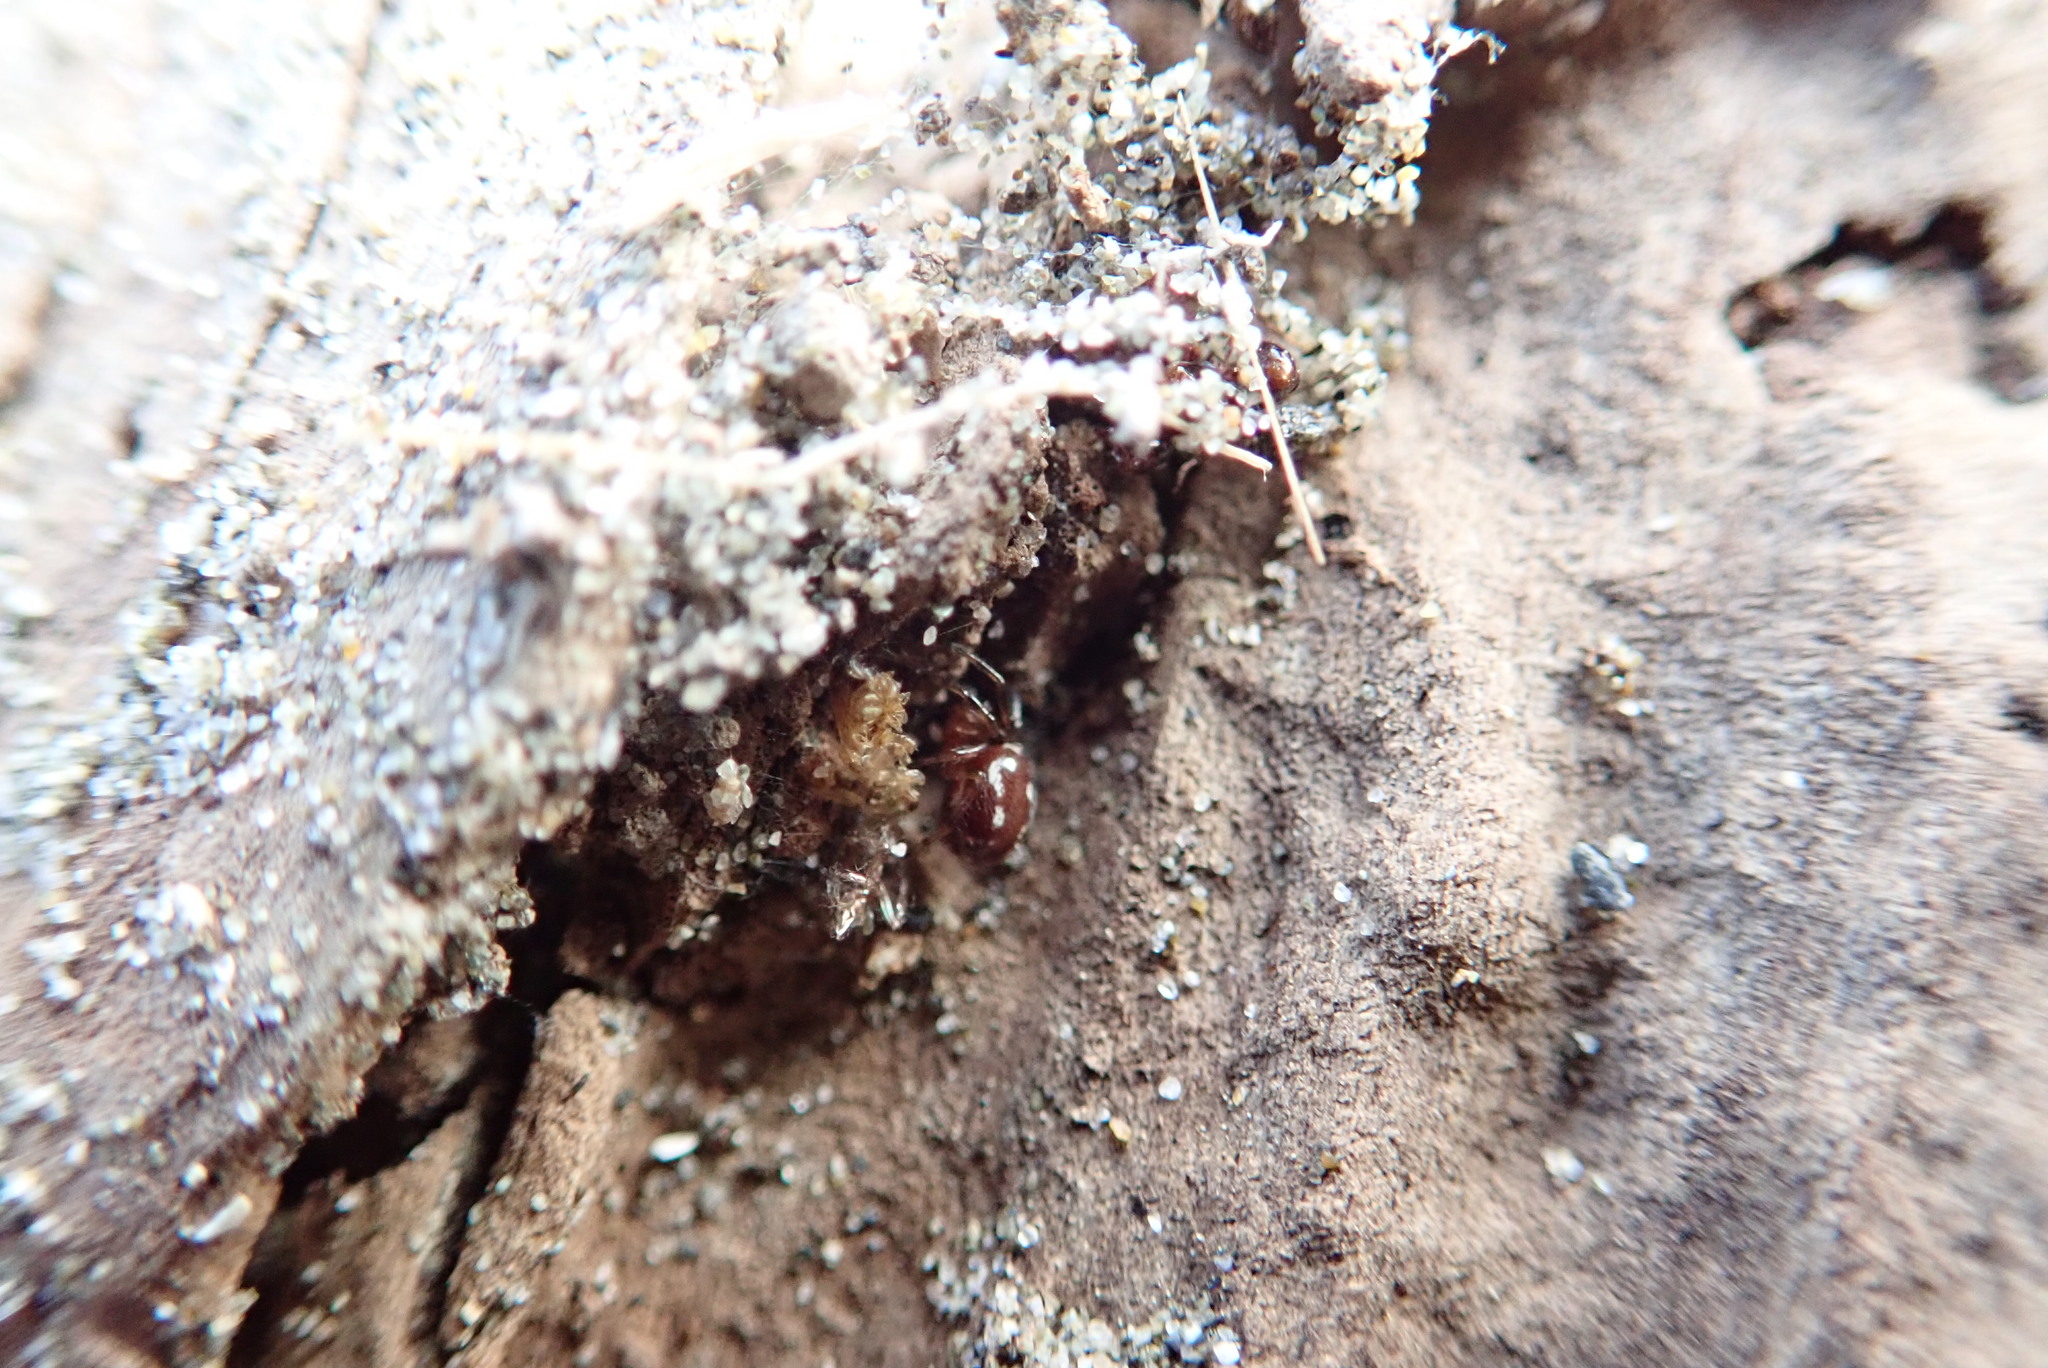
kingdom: Animalia
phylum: Arthropoda
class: Arachnida
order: Araneae
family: Theridiidae
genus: Steatoda
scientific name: Steatoda lepida
